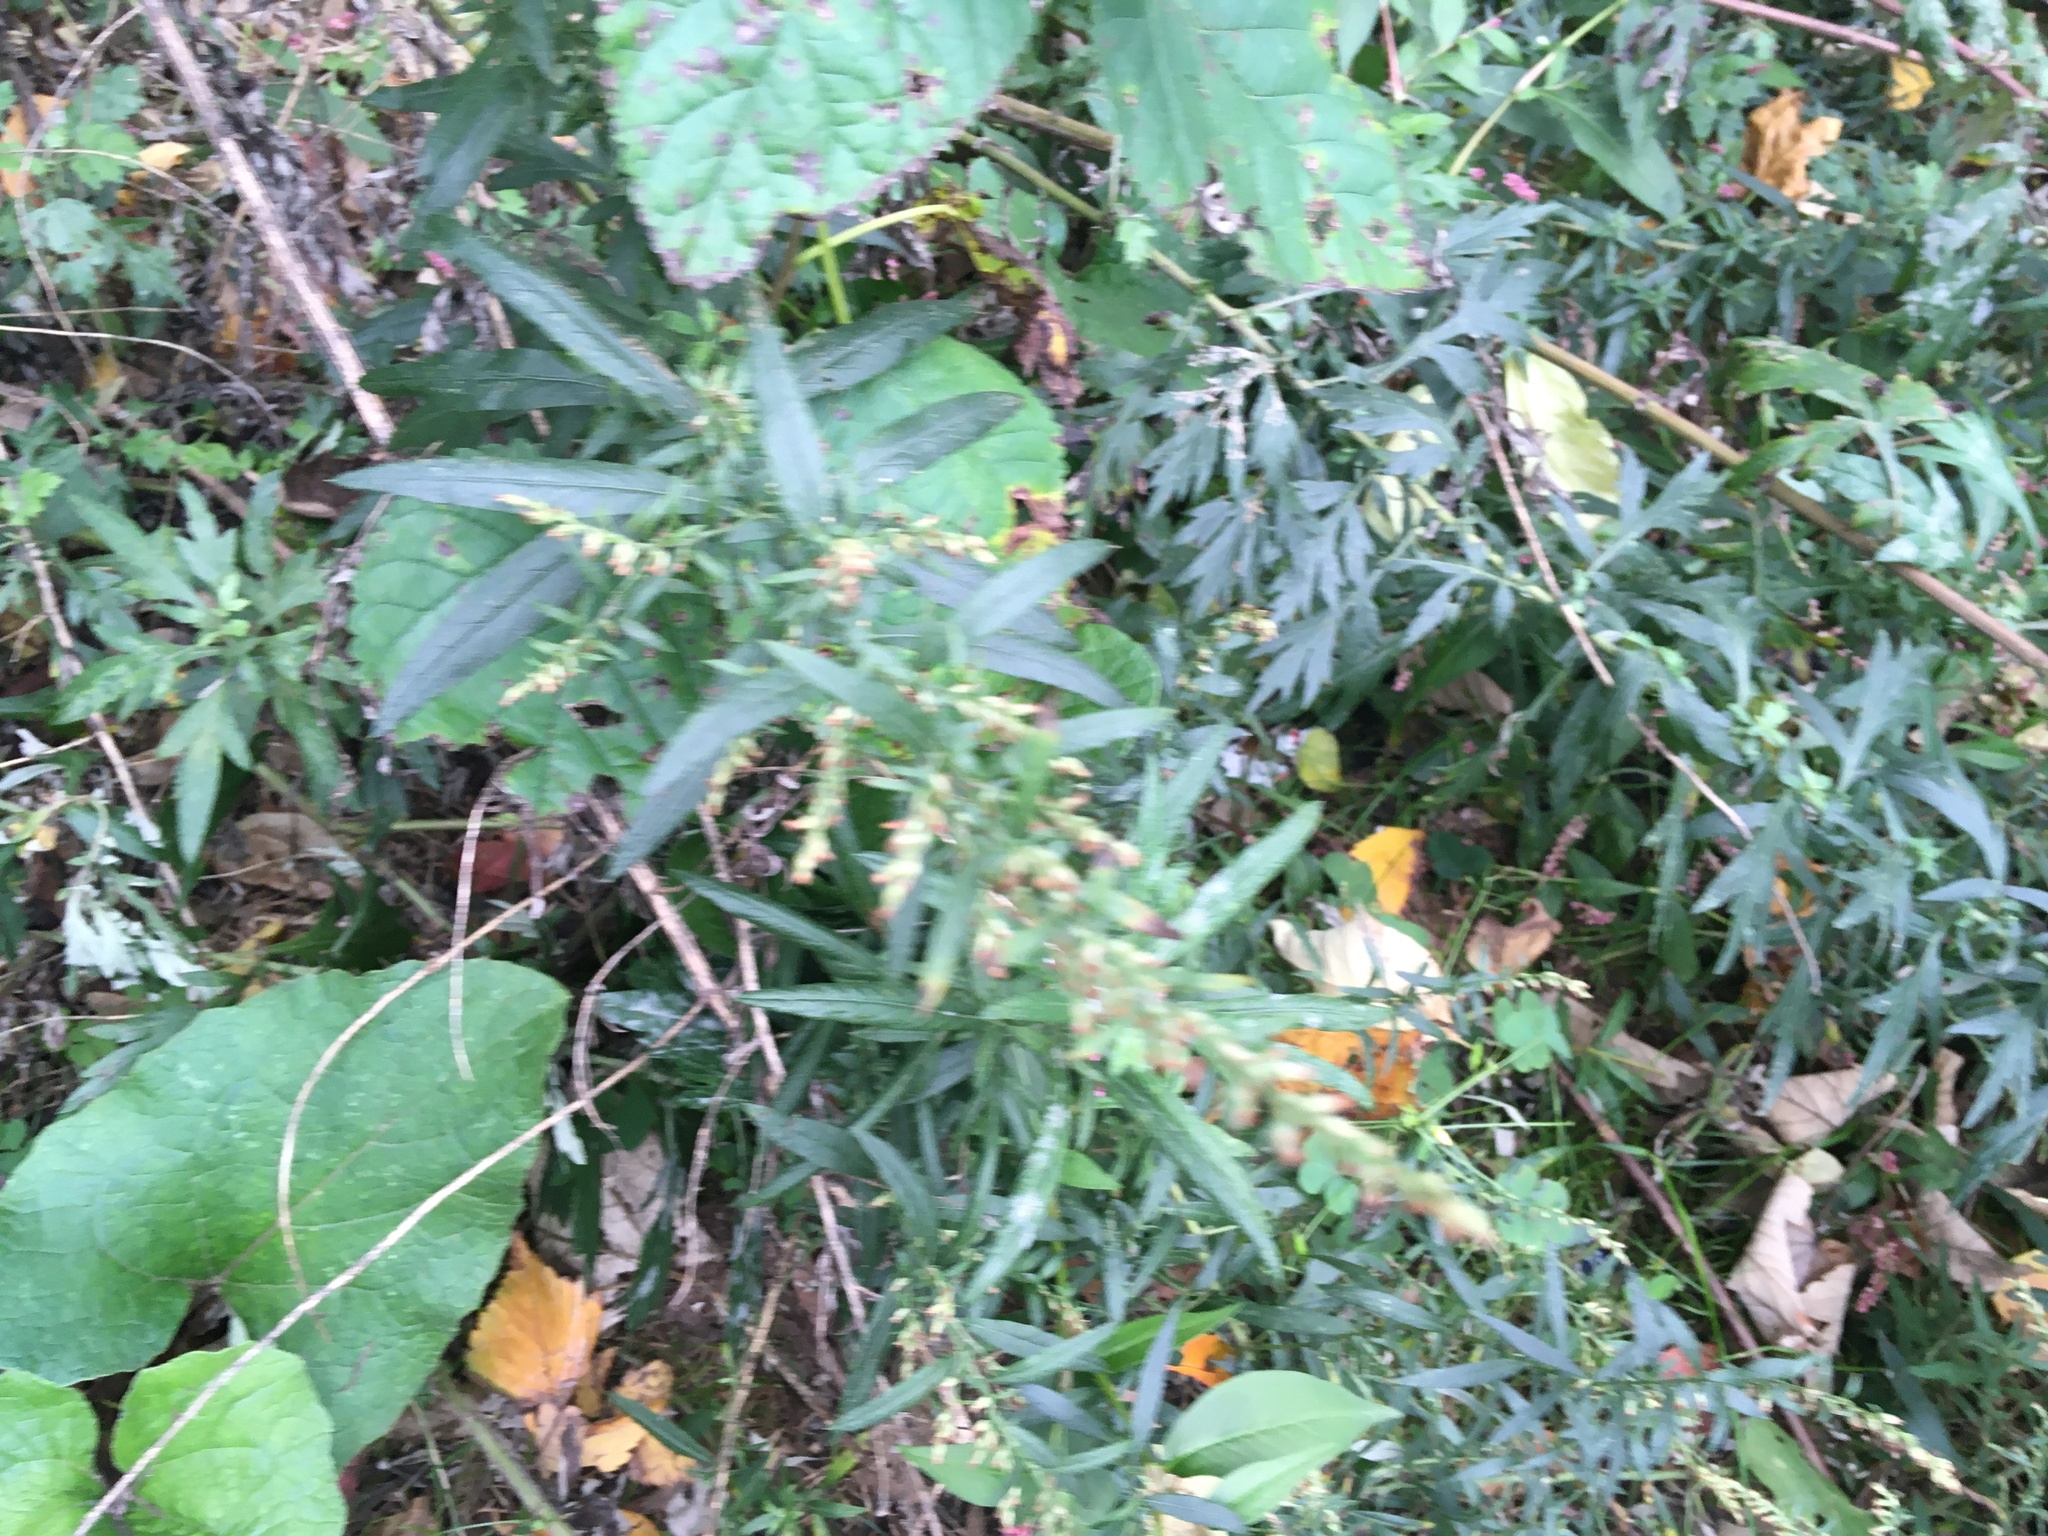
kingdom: Plantae
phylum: Tracheophyta
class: Magnoliopsida
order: Asterales
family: Asteraceae
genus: Artemisia
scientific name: Artemisia vulgaris
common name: Mugwort
